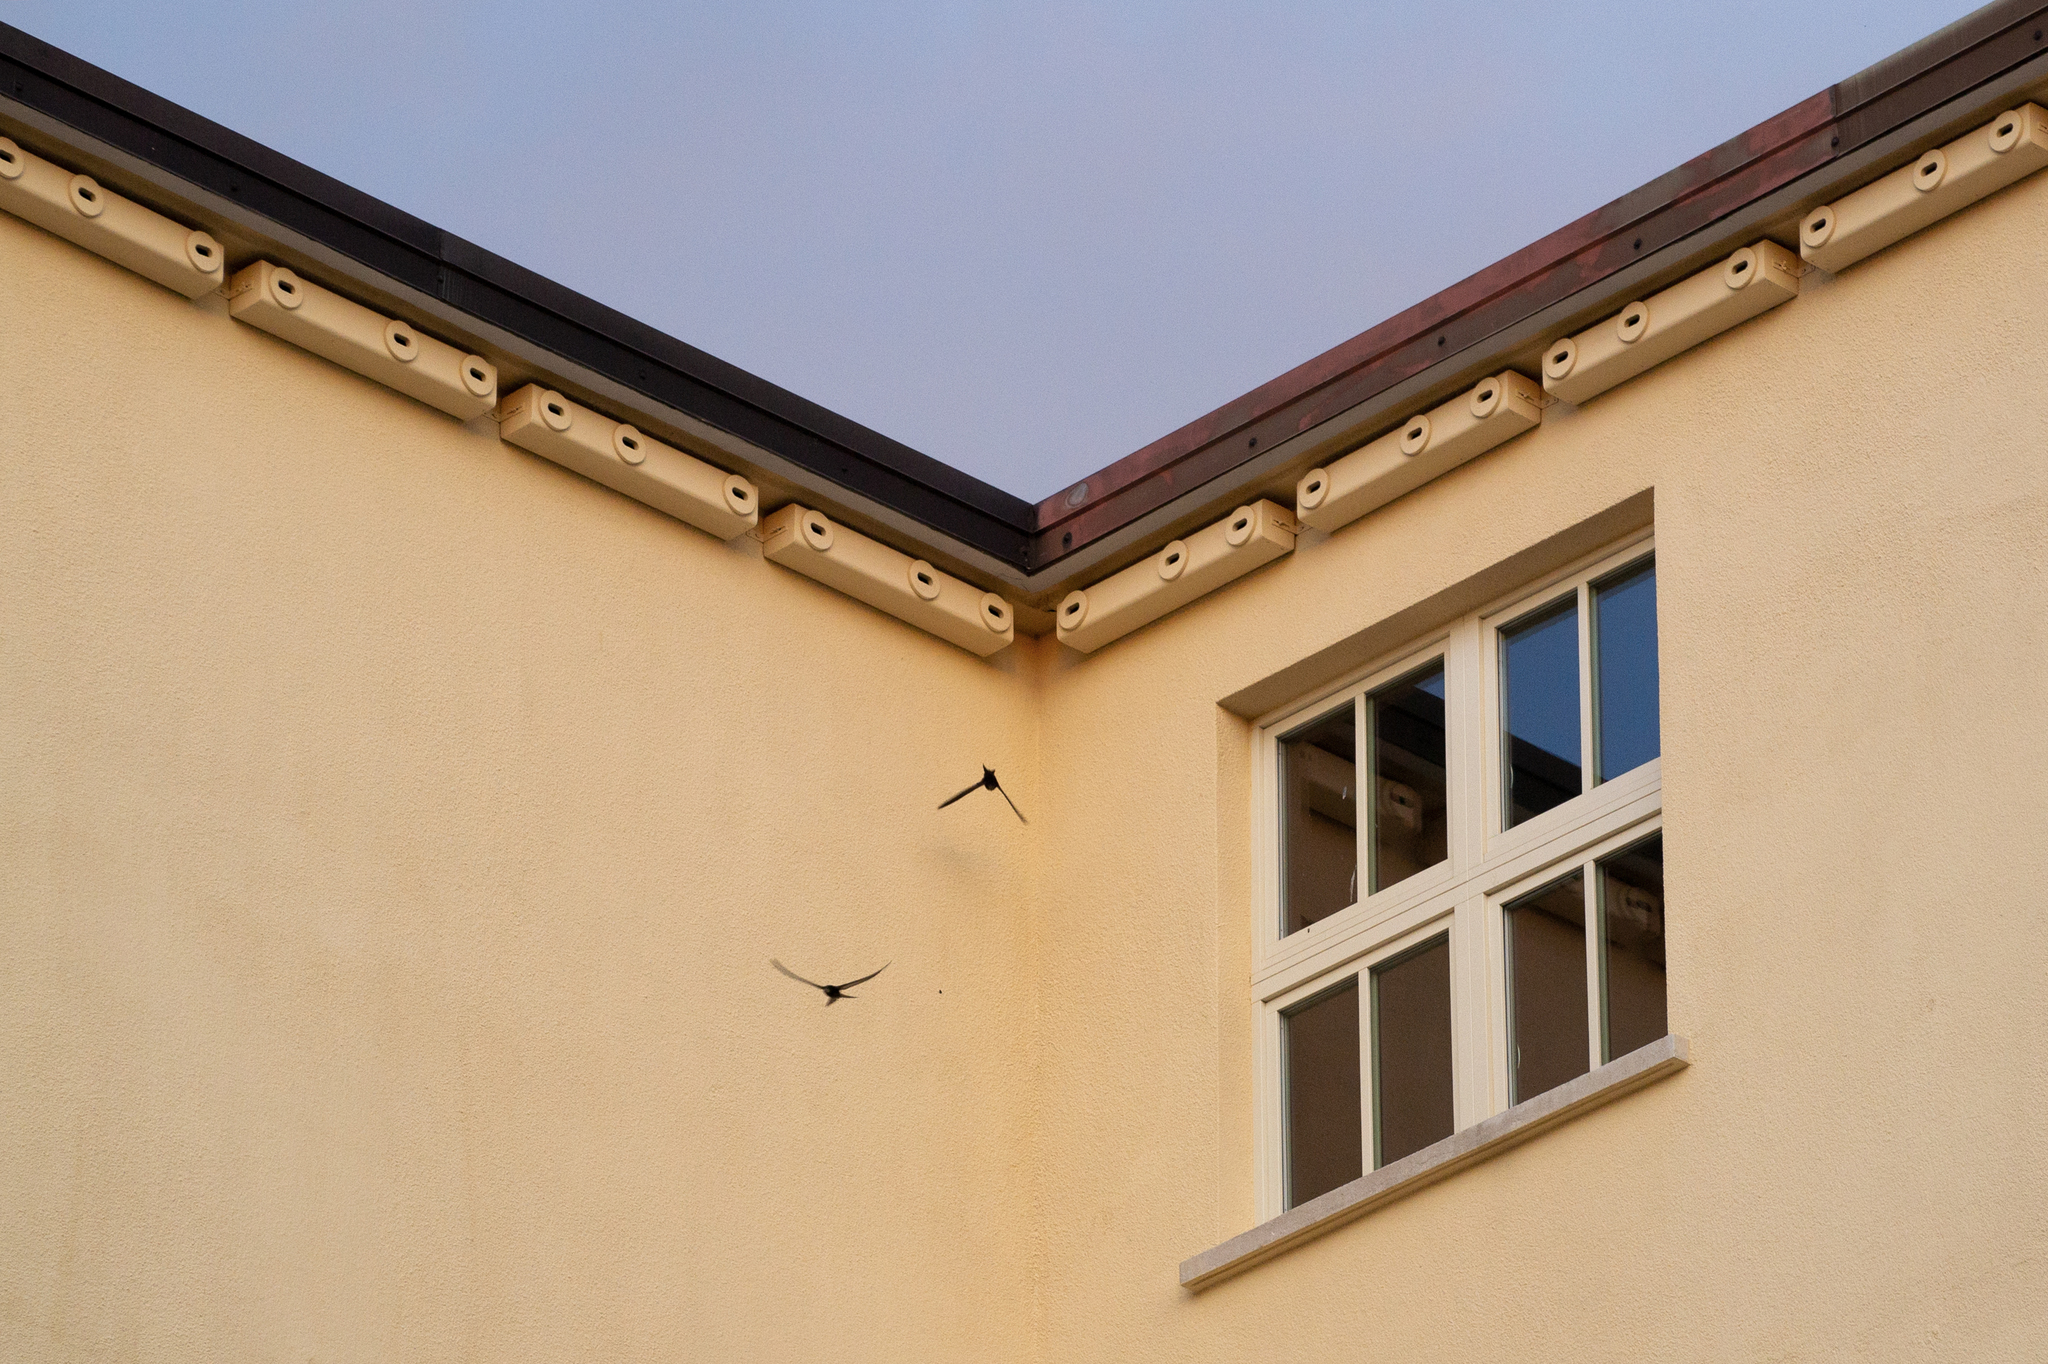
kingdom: Animalia
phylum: Chordata
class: Aves
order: Apodiformes
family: Apodidae
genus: Apus
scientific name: Apus apus
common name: Common swift
